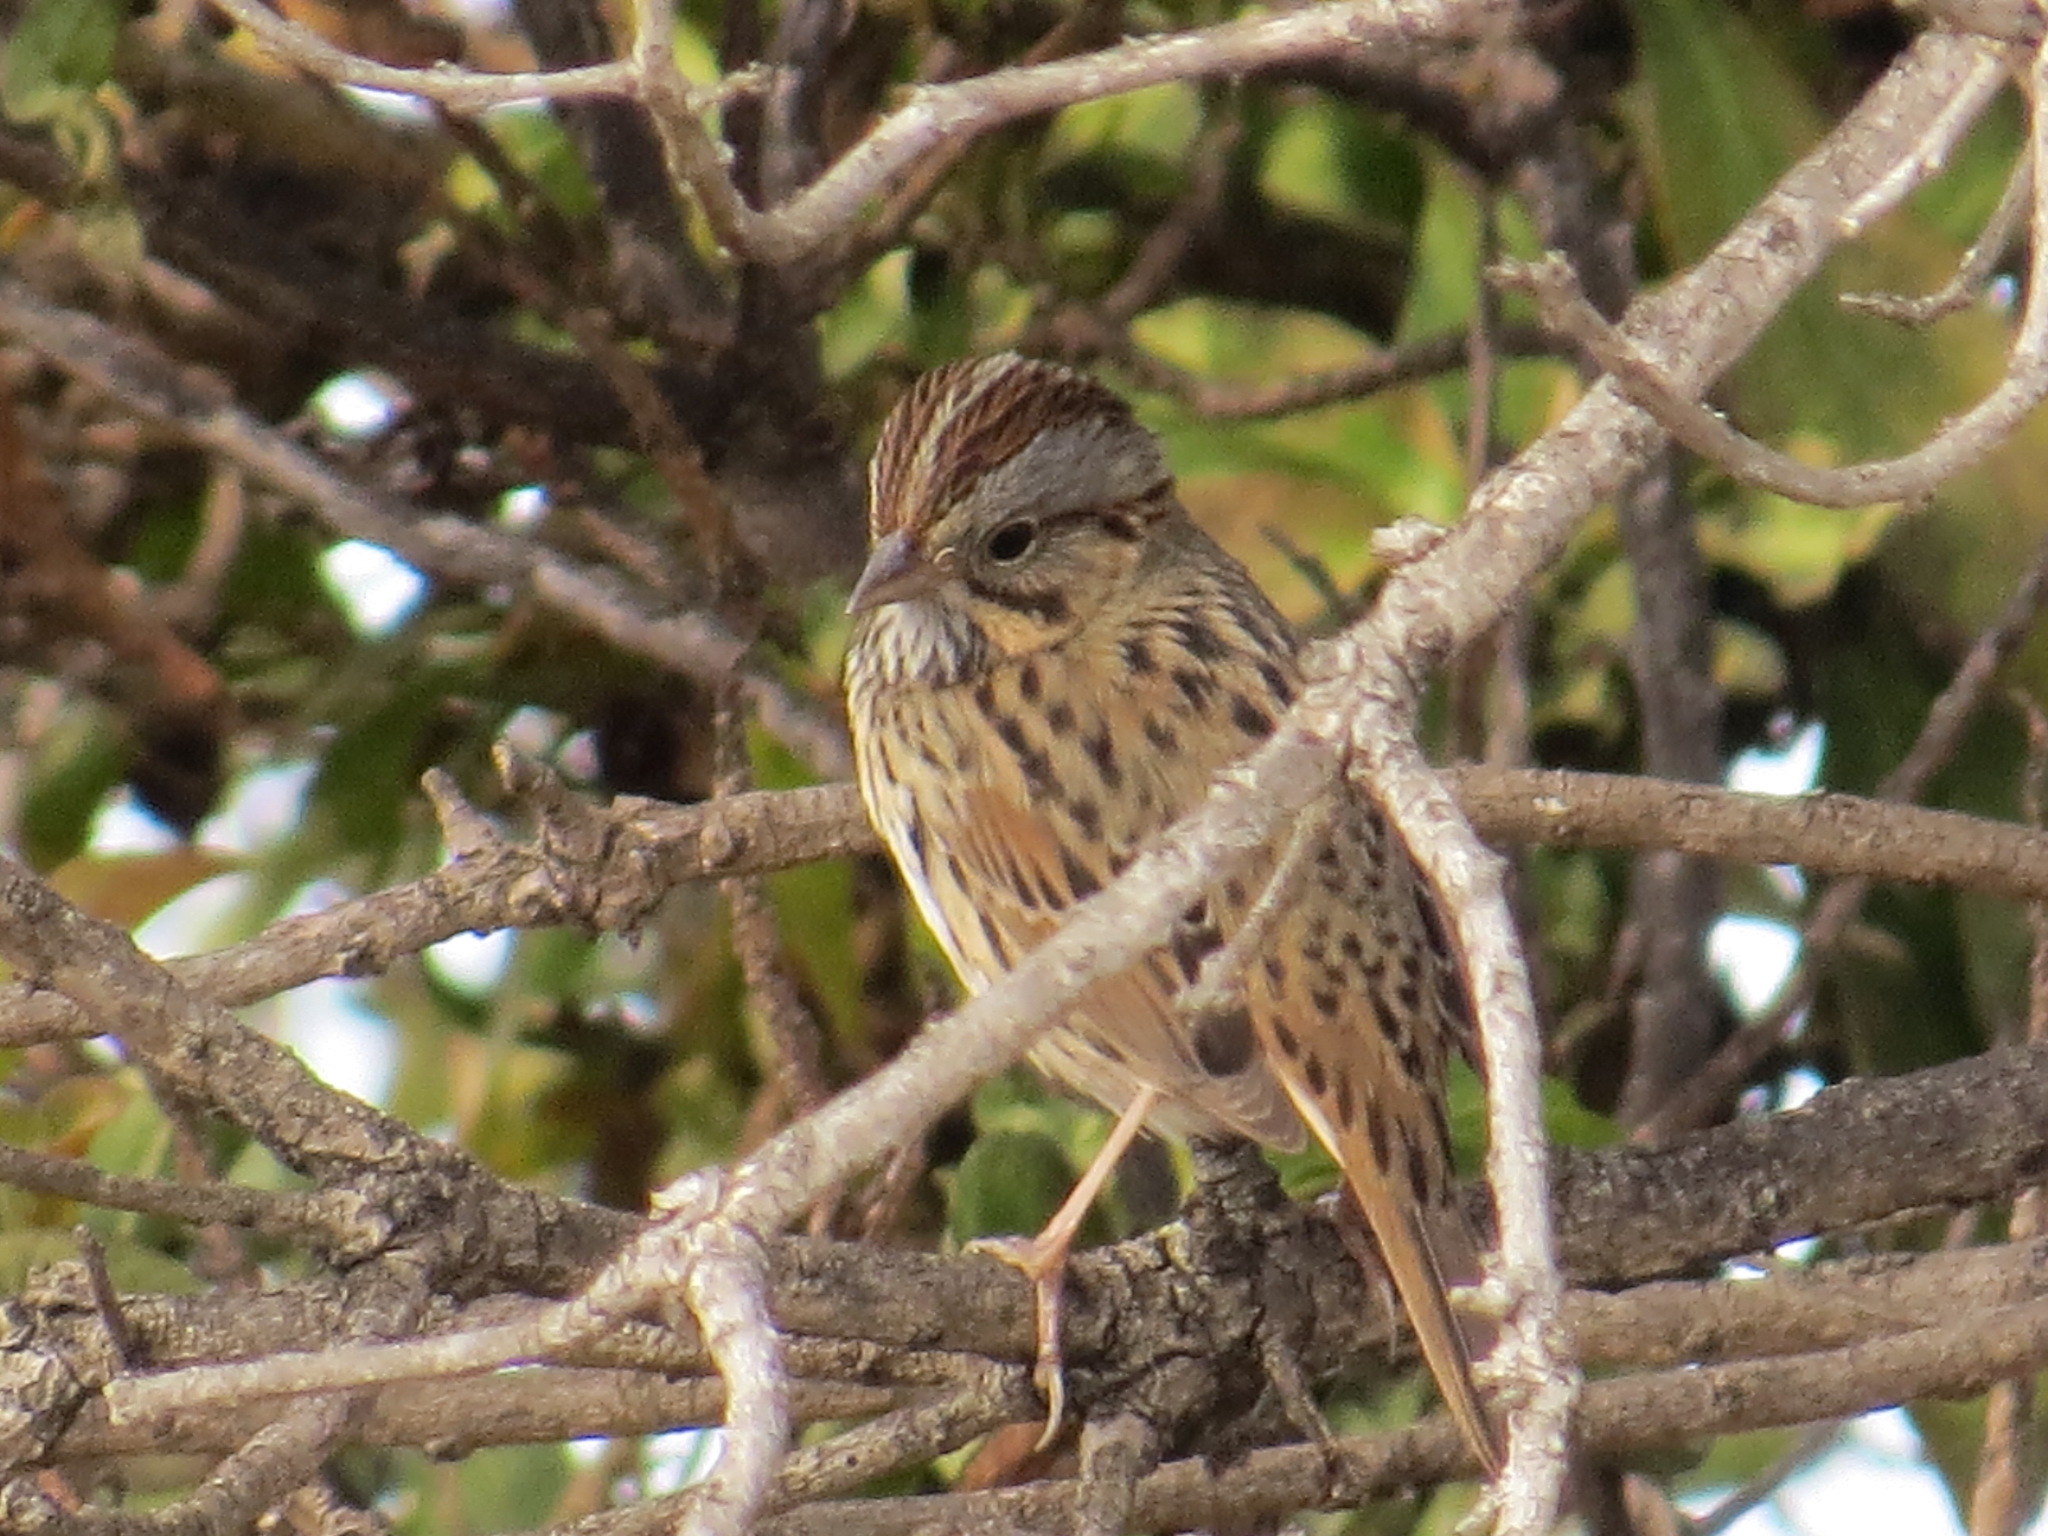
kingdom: Animalia
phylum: Chordata
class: Aves
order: Passeriformes
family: Passerellidae
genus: Melospiza
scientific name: Melospiza lincolnii
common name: Lincoln's sparrow
